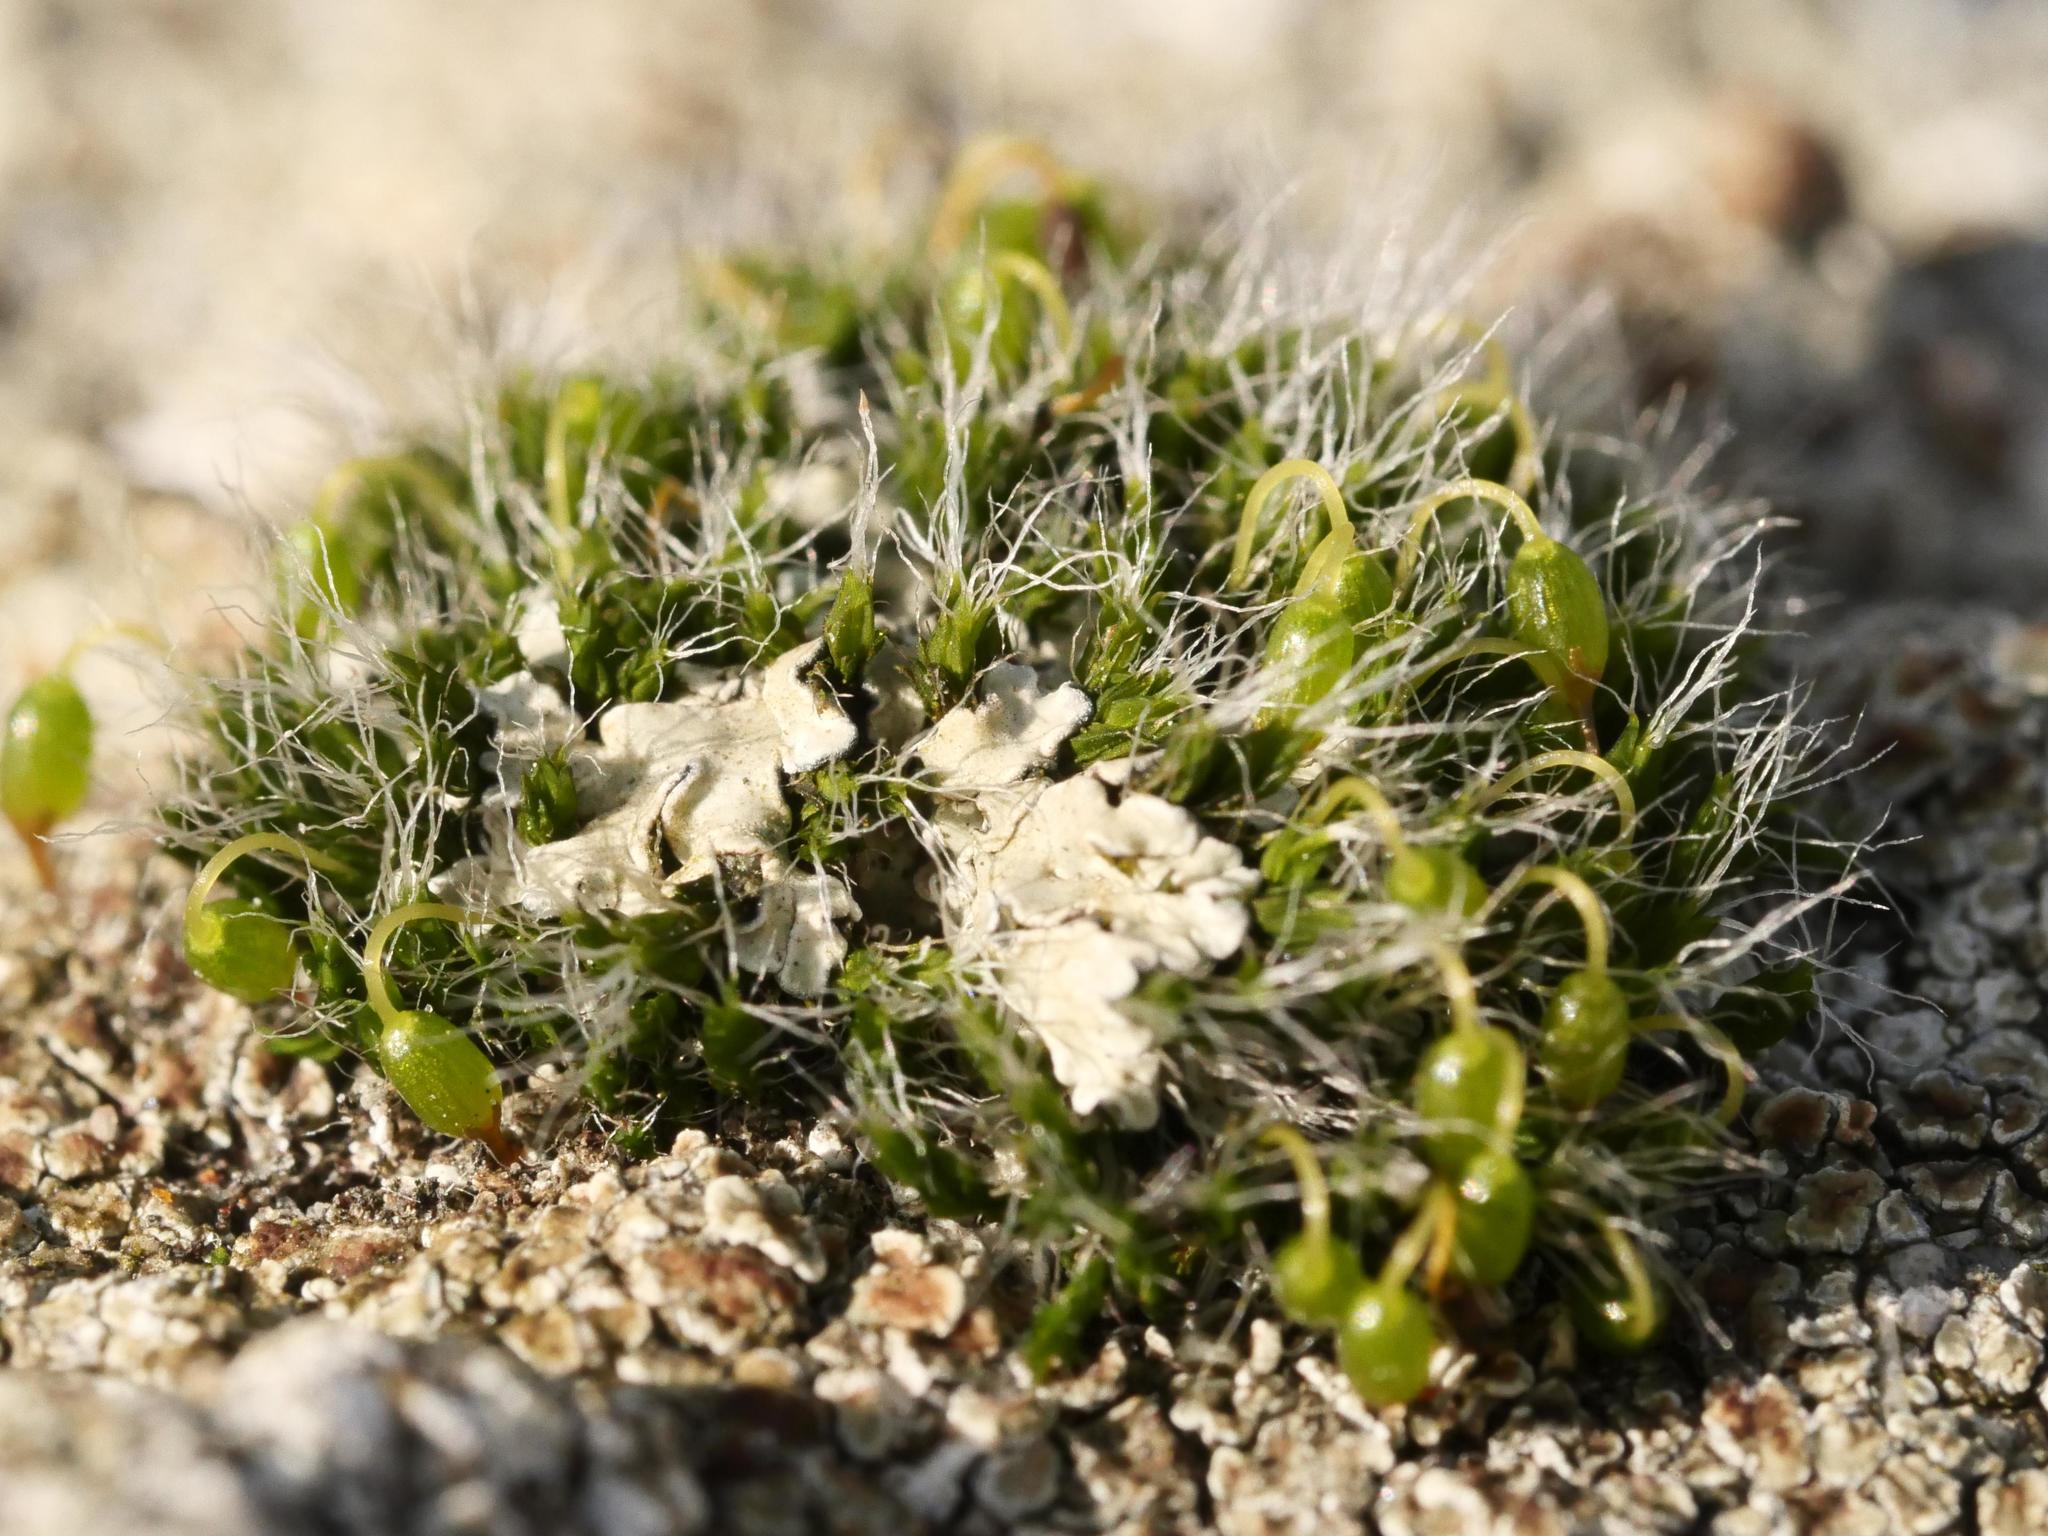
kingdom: Plantae
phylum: Bryophyta
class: Bryopsida
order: Grimmiales
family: Grimmiaceae
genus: Grimmia
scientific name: Grimmia pulvinata
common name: Grey-cushioned grimmia
